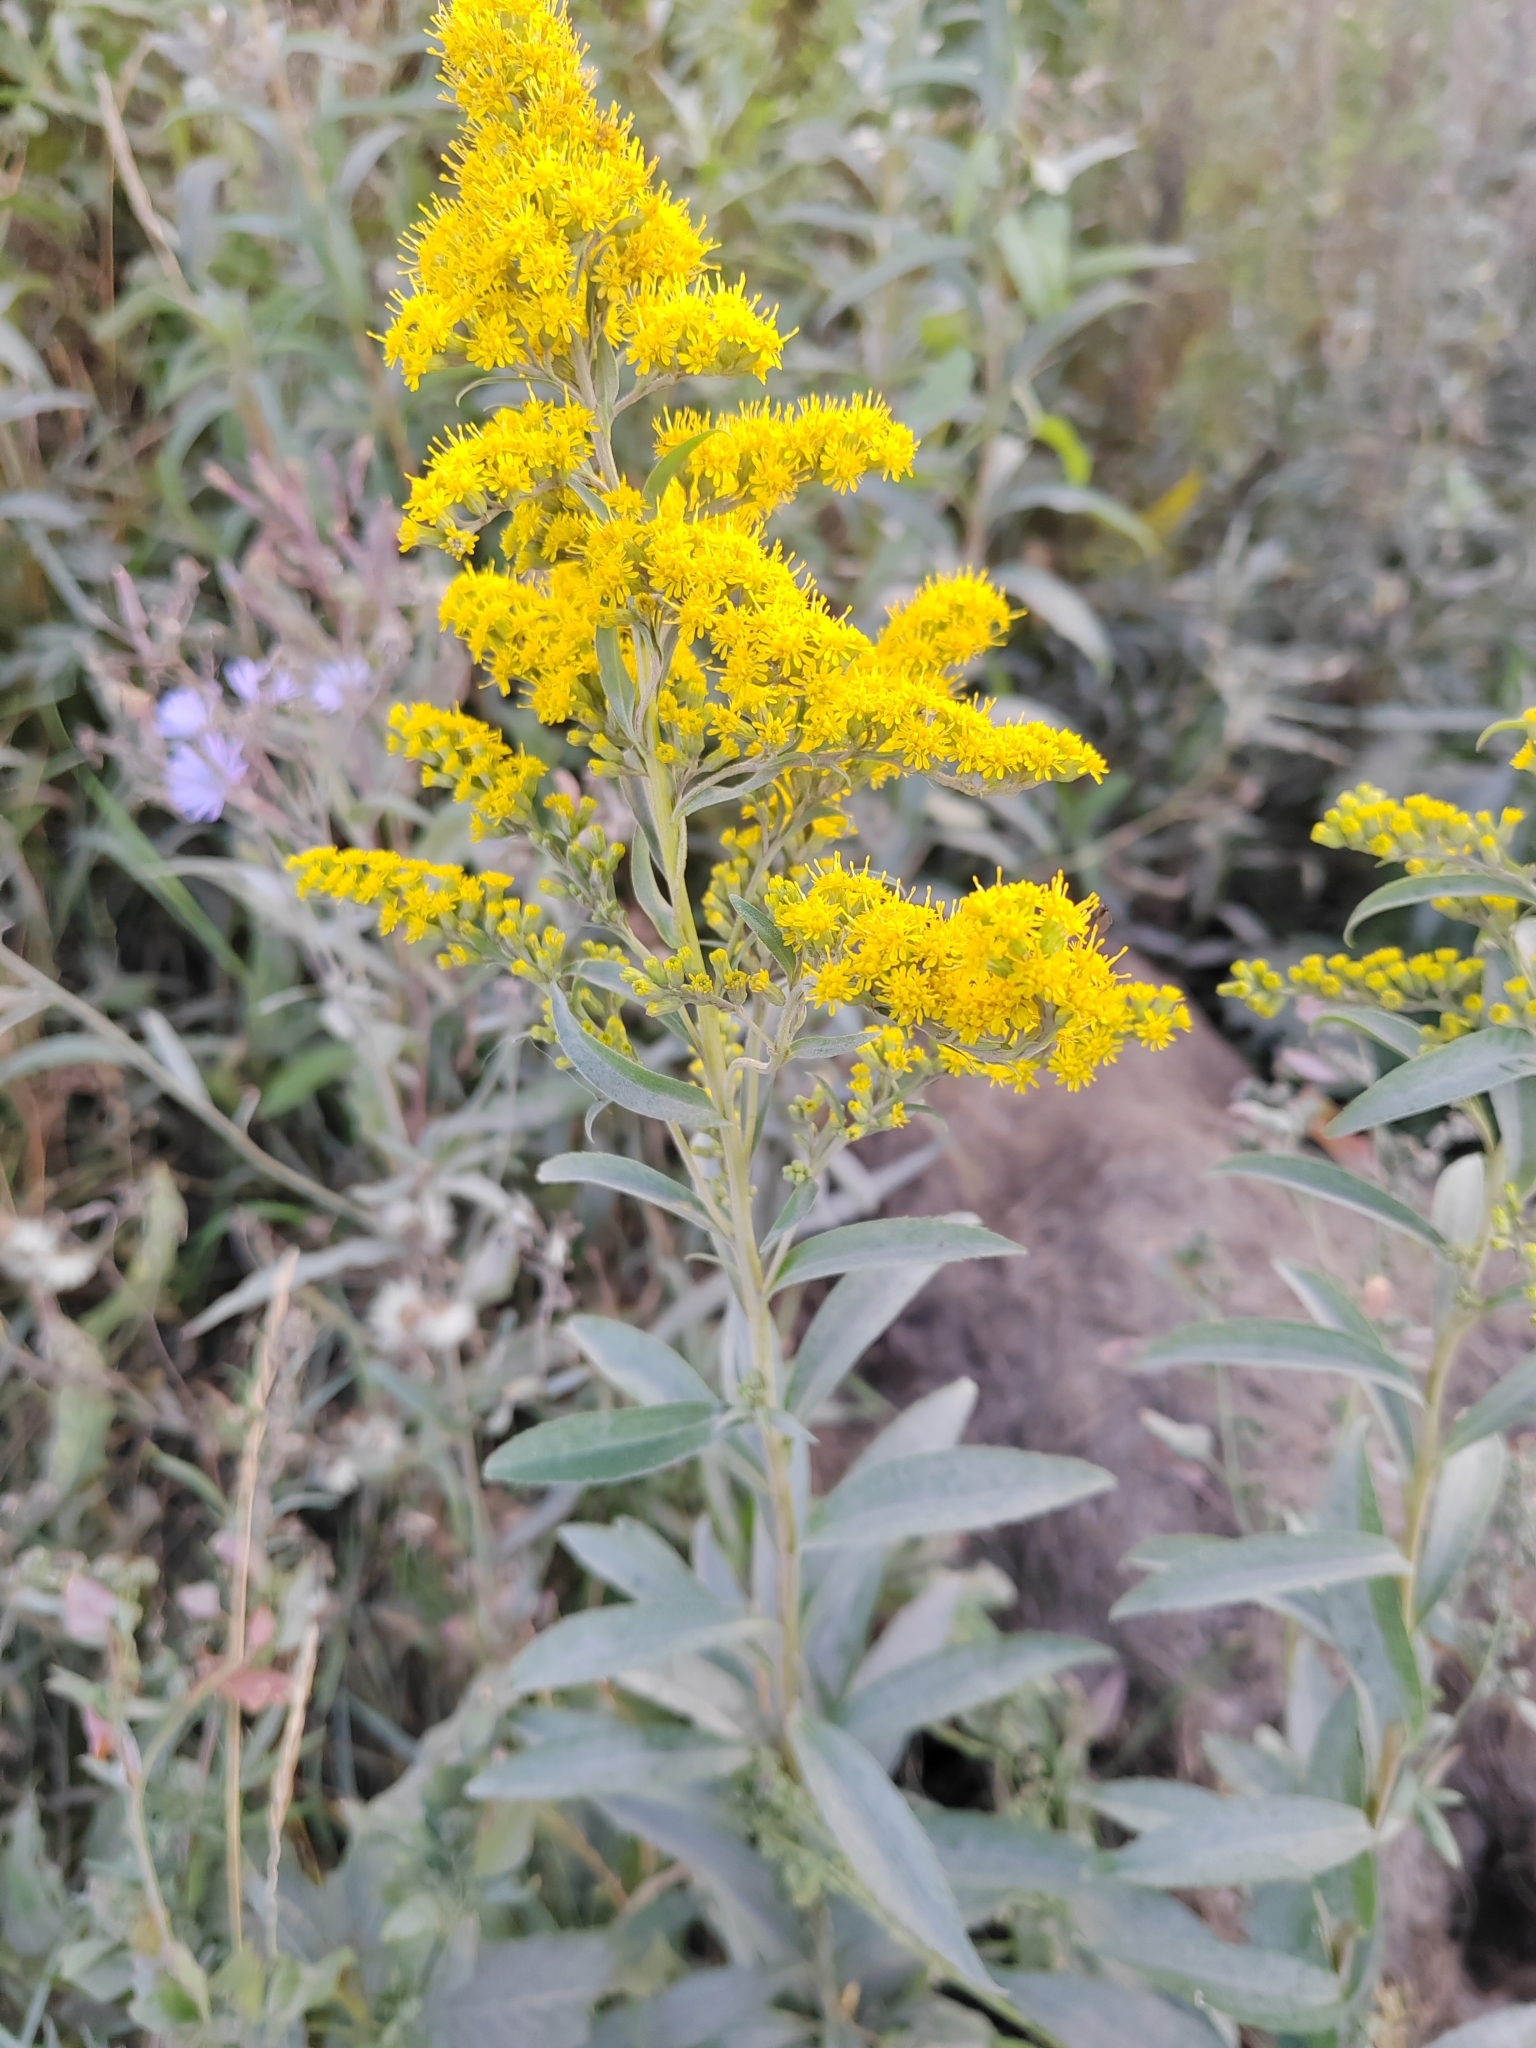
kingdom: Plantae
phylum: Tracheophyta
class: Magnoliopsida
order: Asterales
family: Asteraceae
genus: Solidago
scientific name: Solidago gigantea
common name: Giant goldenrod
